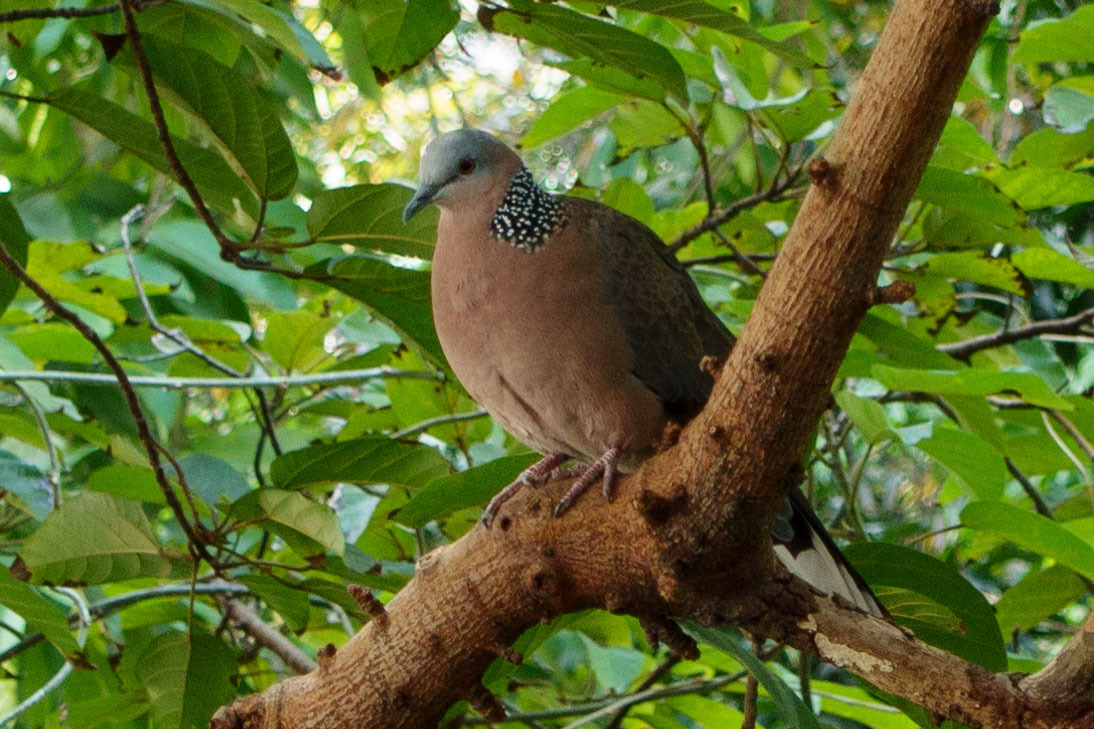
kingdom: Animalia
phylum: Chordata
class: Aves
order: Columbiformes
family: Columbidae
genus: Spilopelia
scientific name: Spilopelia chinensis
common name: Spotted dove
